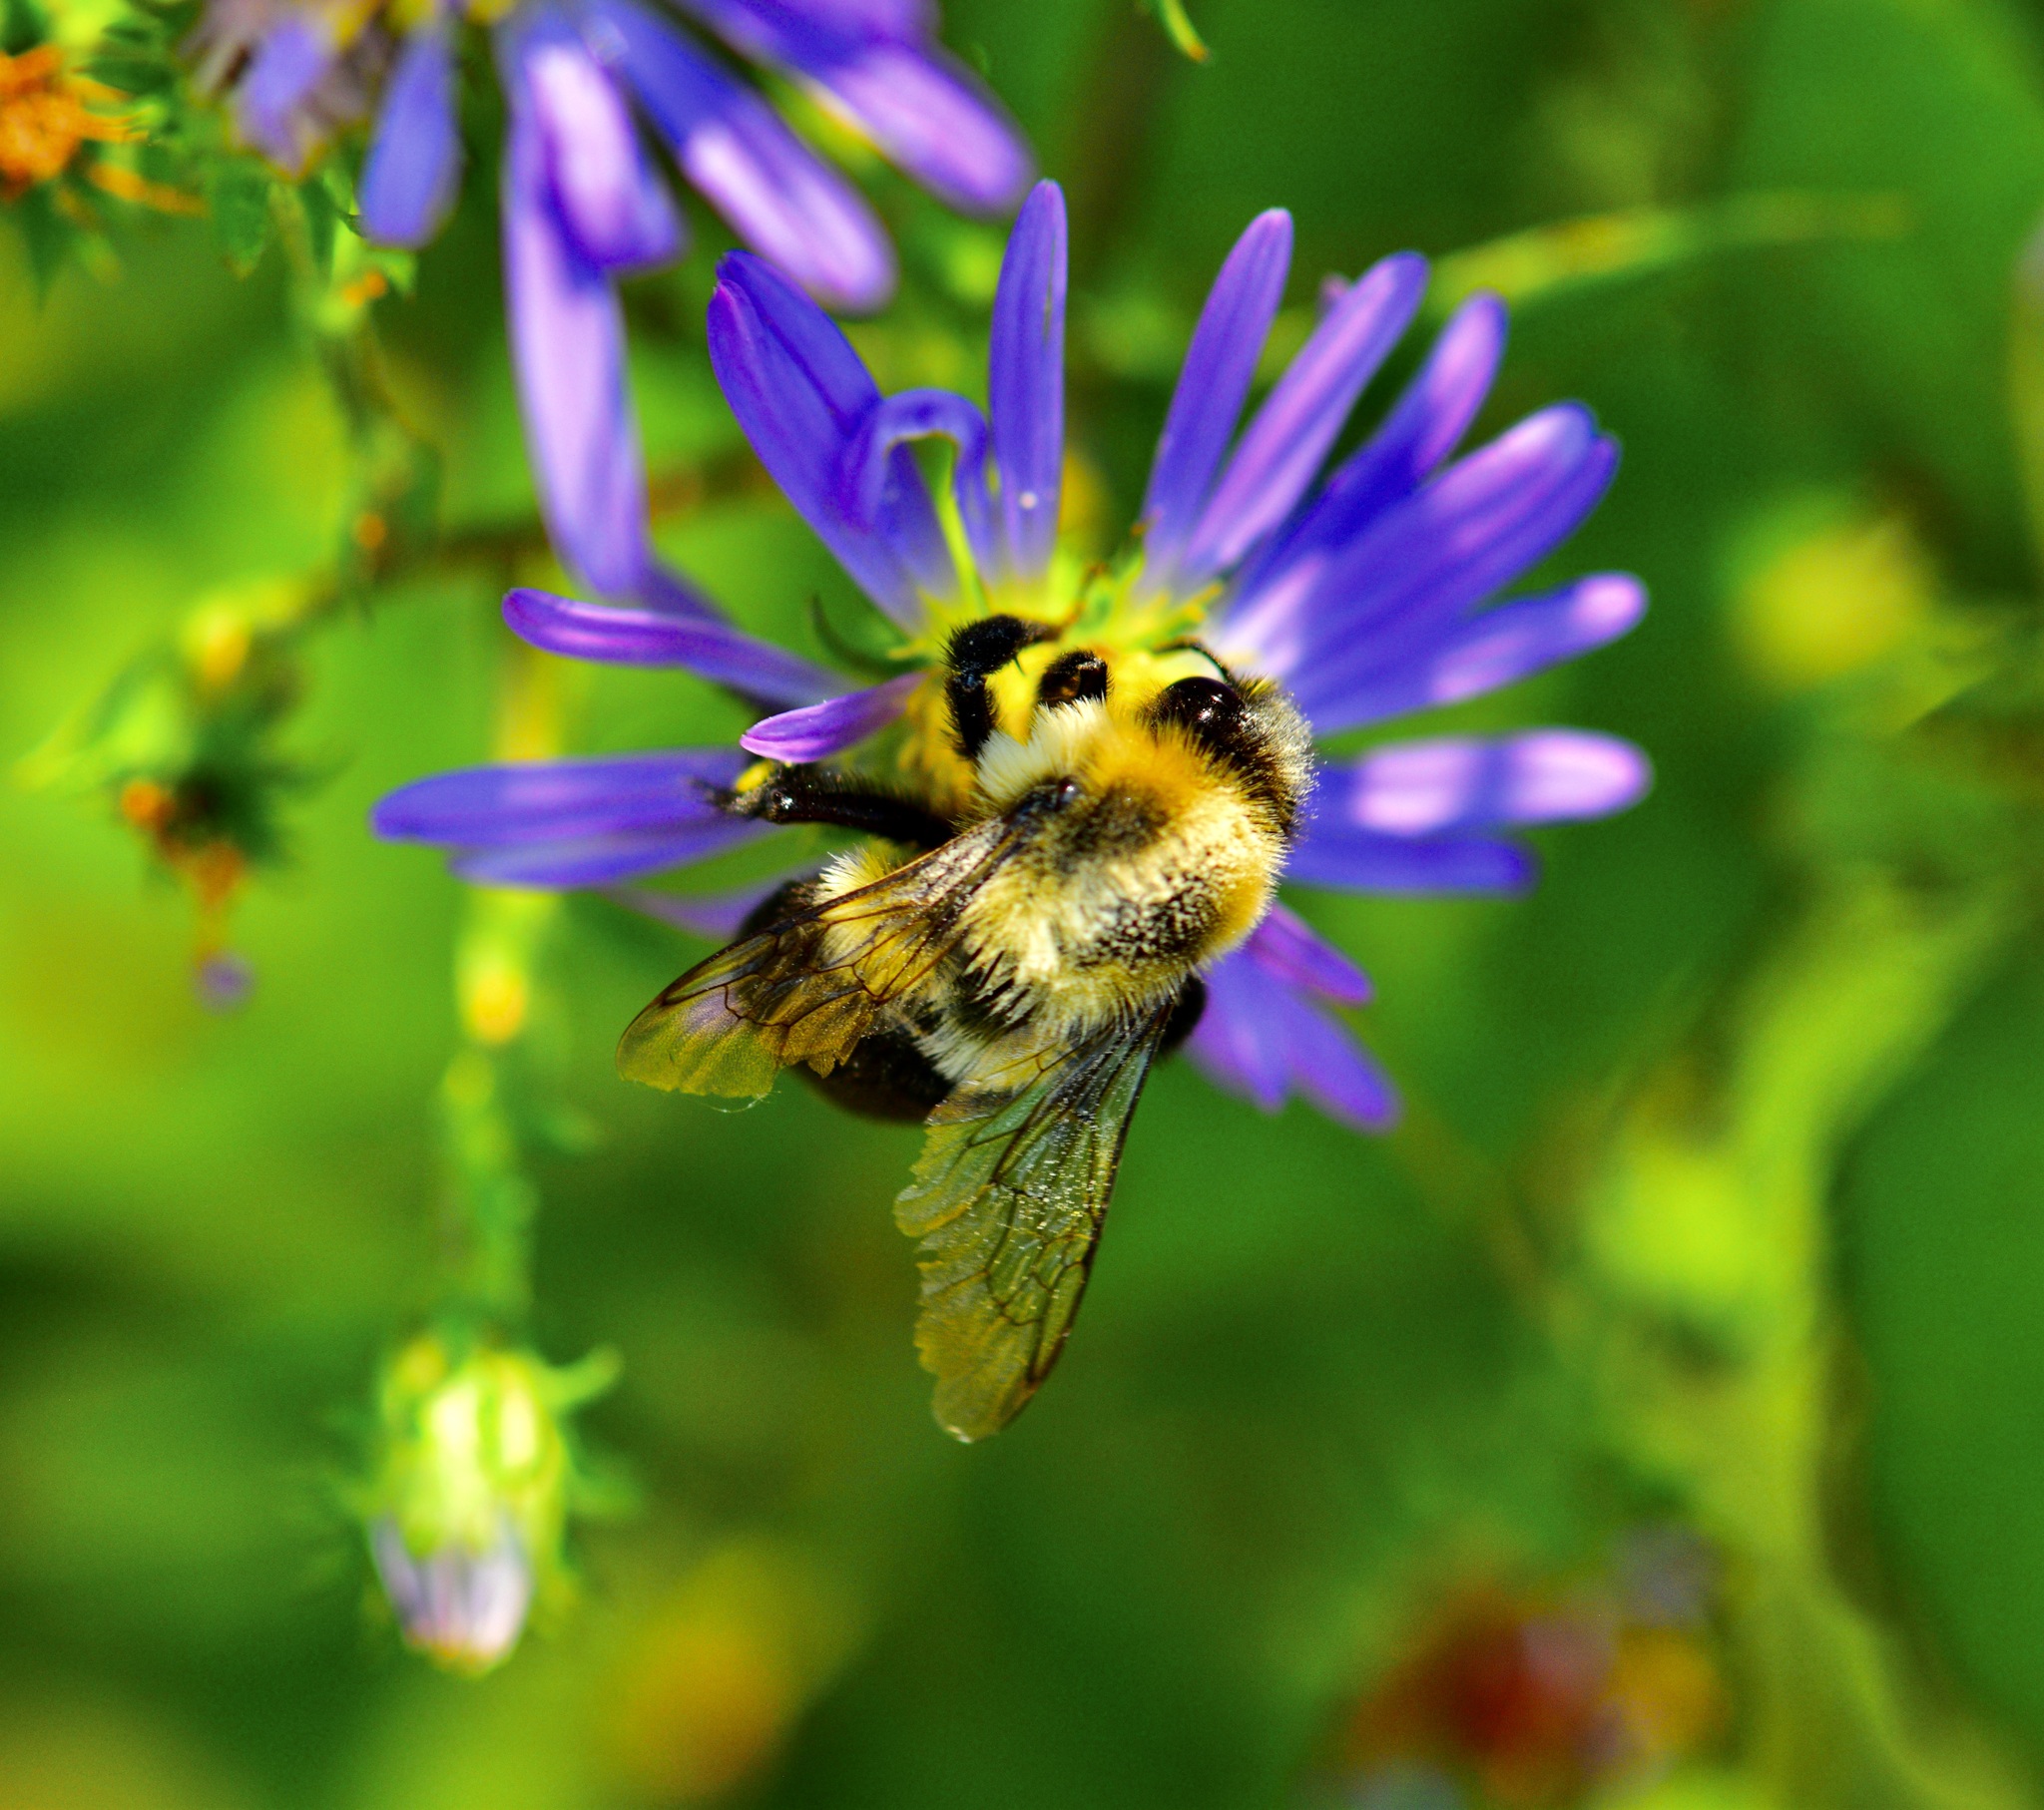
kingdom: Animalia
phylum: Arthropoda
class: Insecta
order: Hymenoptera
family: Apidae
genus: Bombus
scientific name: Bombus impatiens
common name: Common eastern bumble bee
